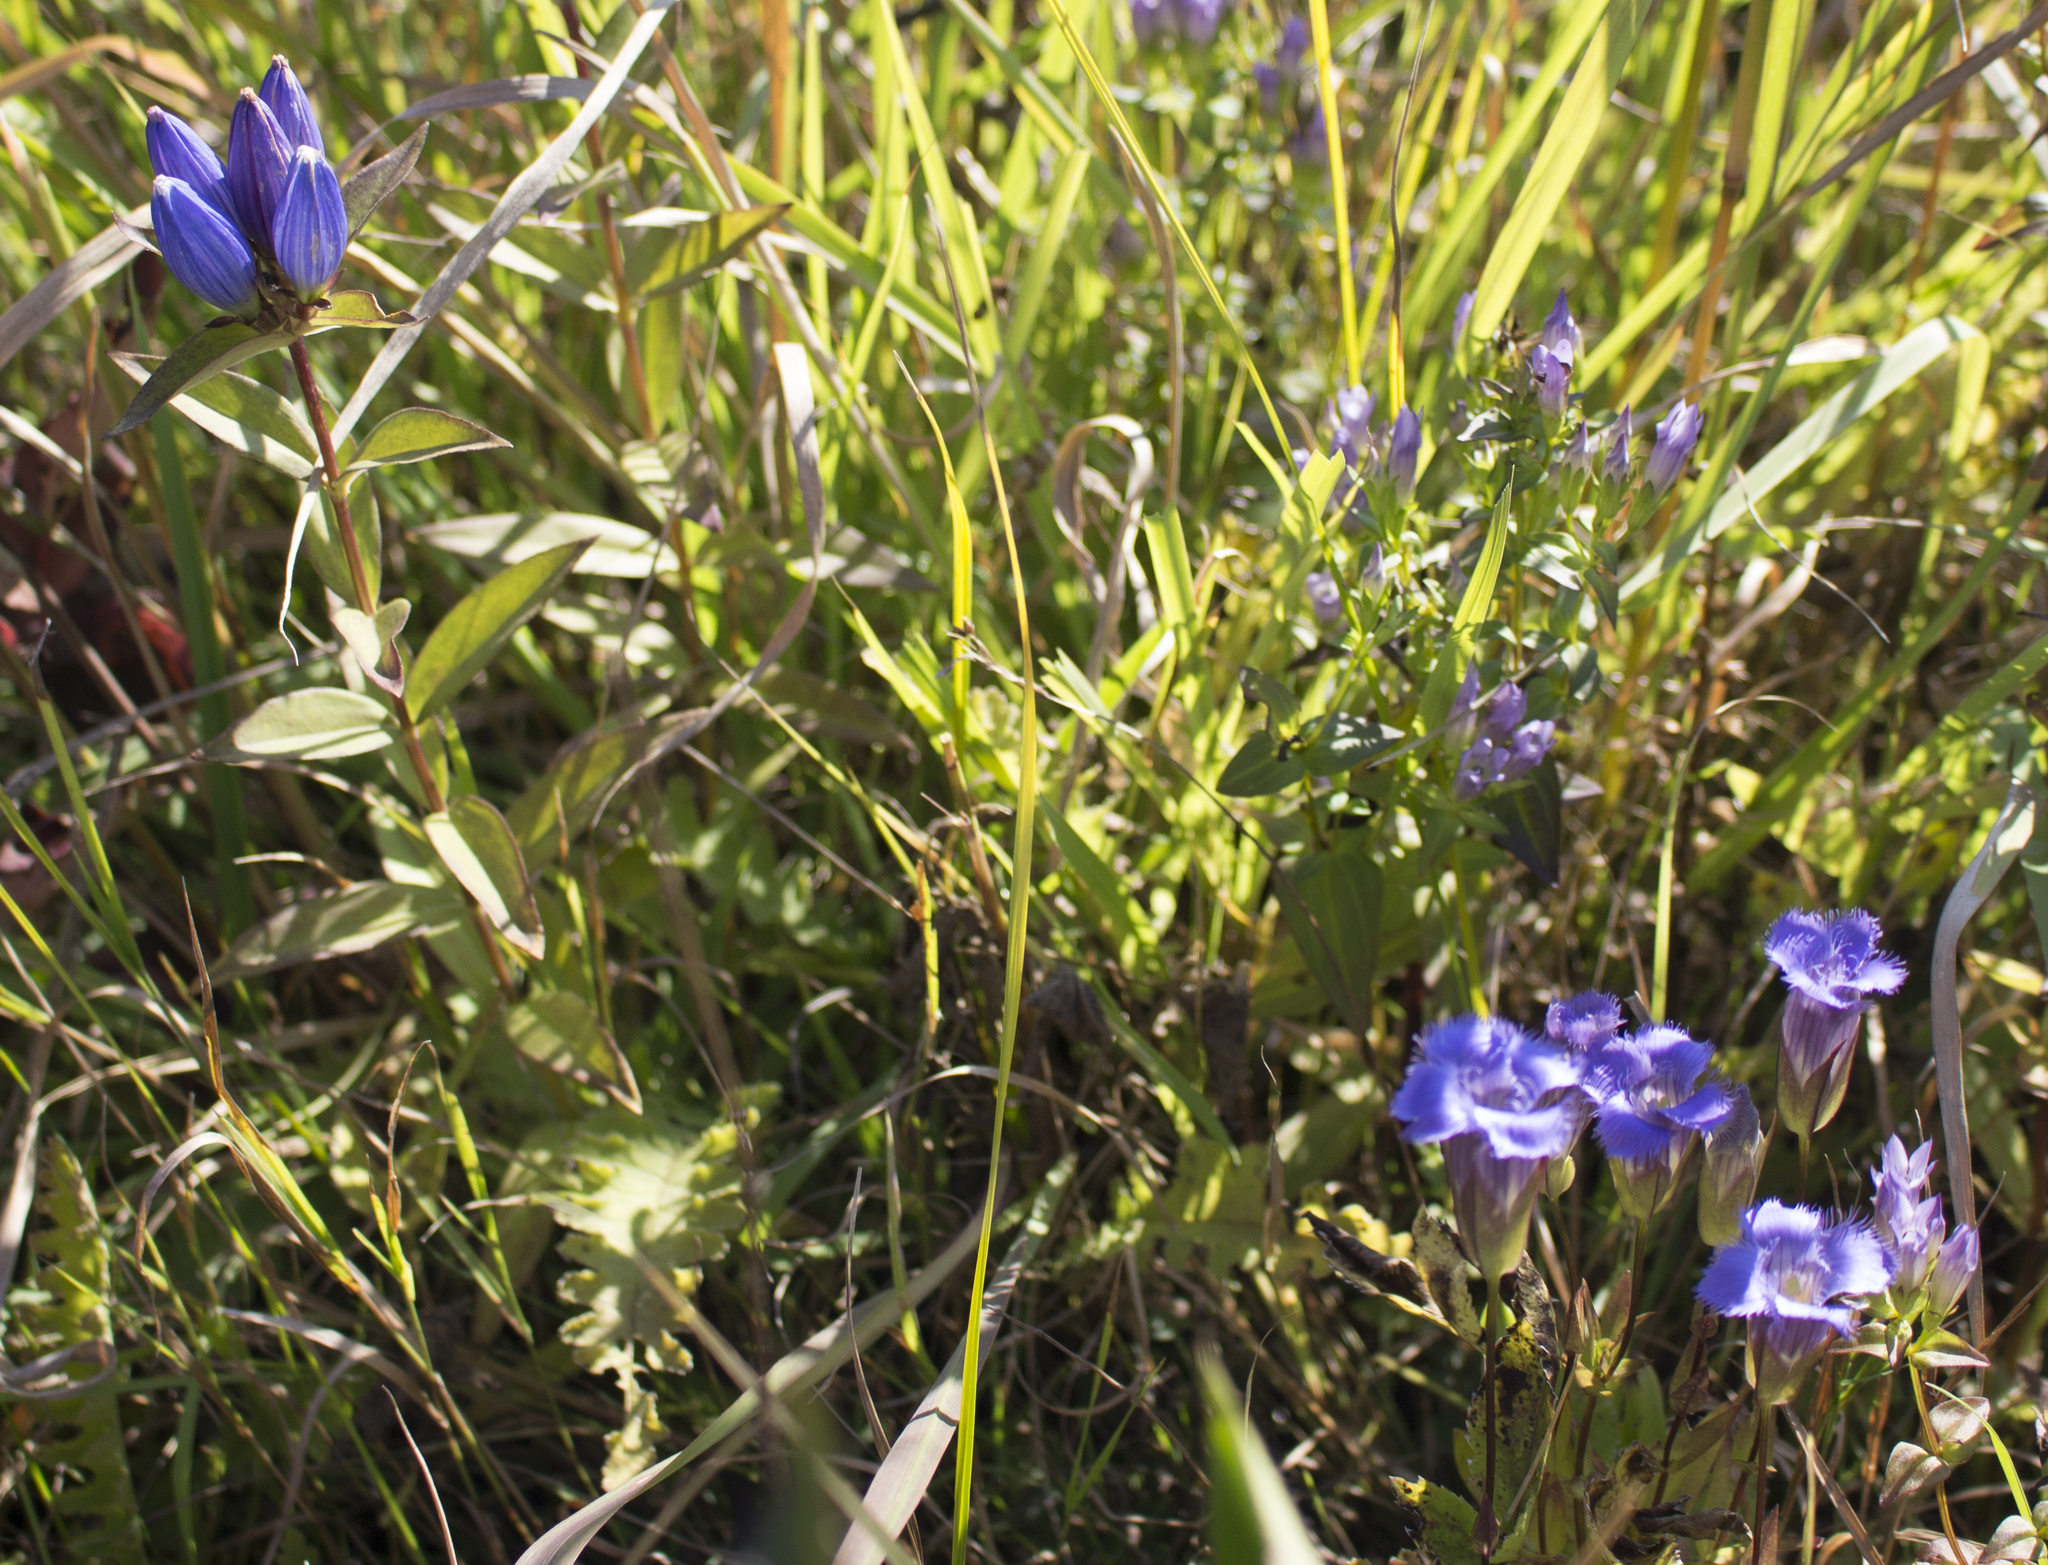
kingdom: Plantae
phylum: Tracheophyta
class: Magnoliopsida
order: Gentianales
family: Gentianaceae
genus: Gentianopsis
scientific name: Gentianopsis crinita
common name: Fringed-gentian
